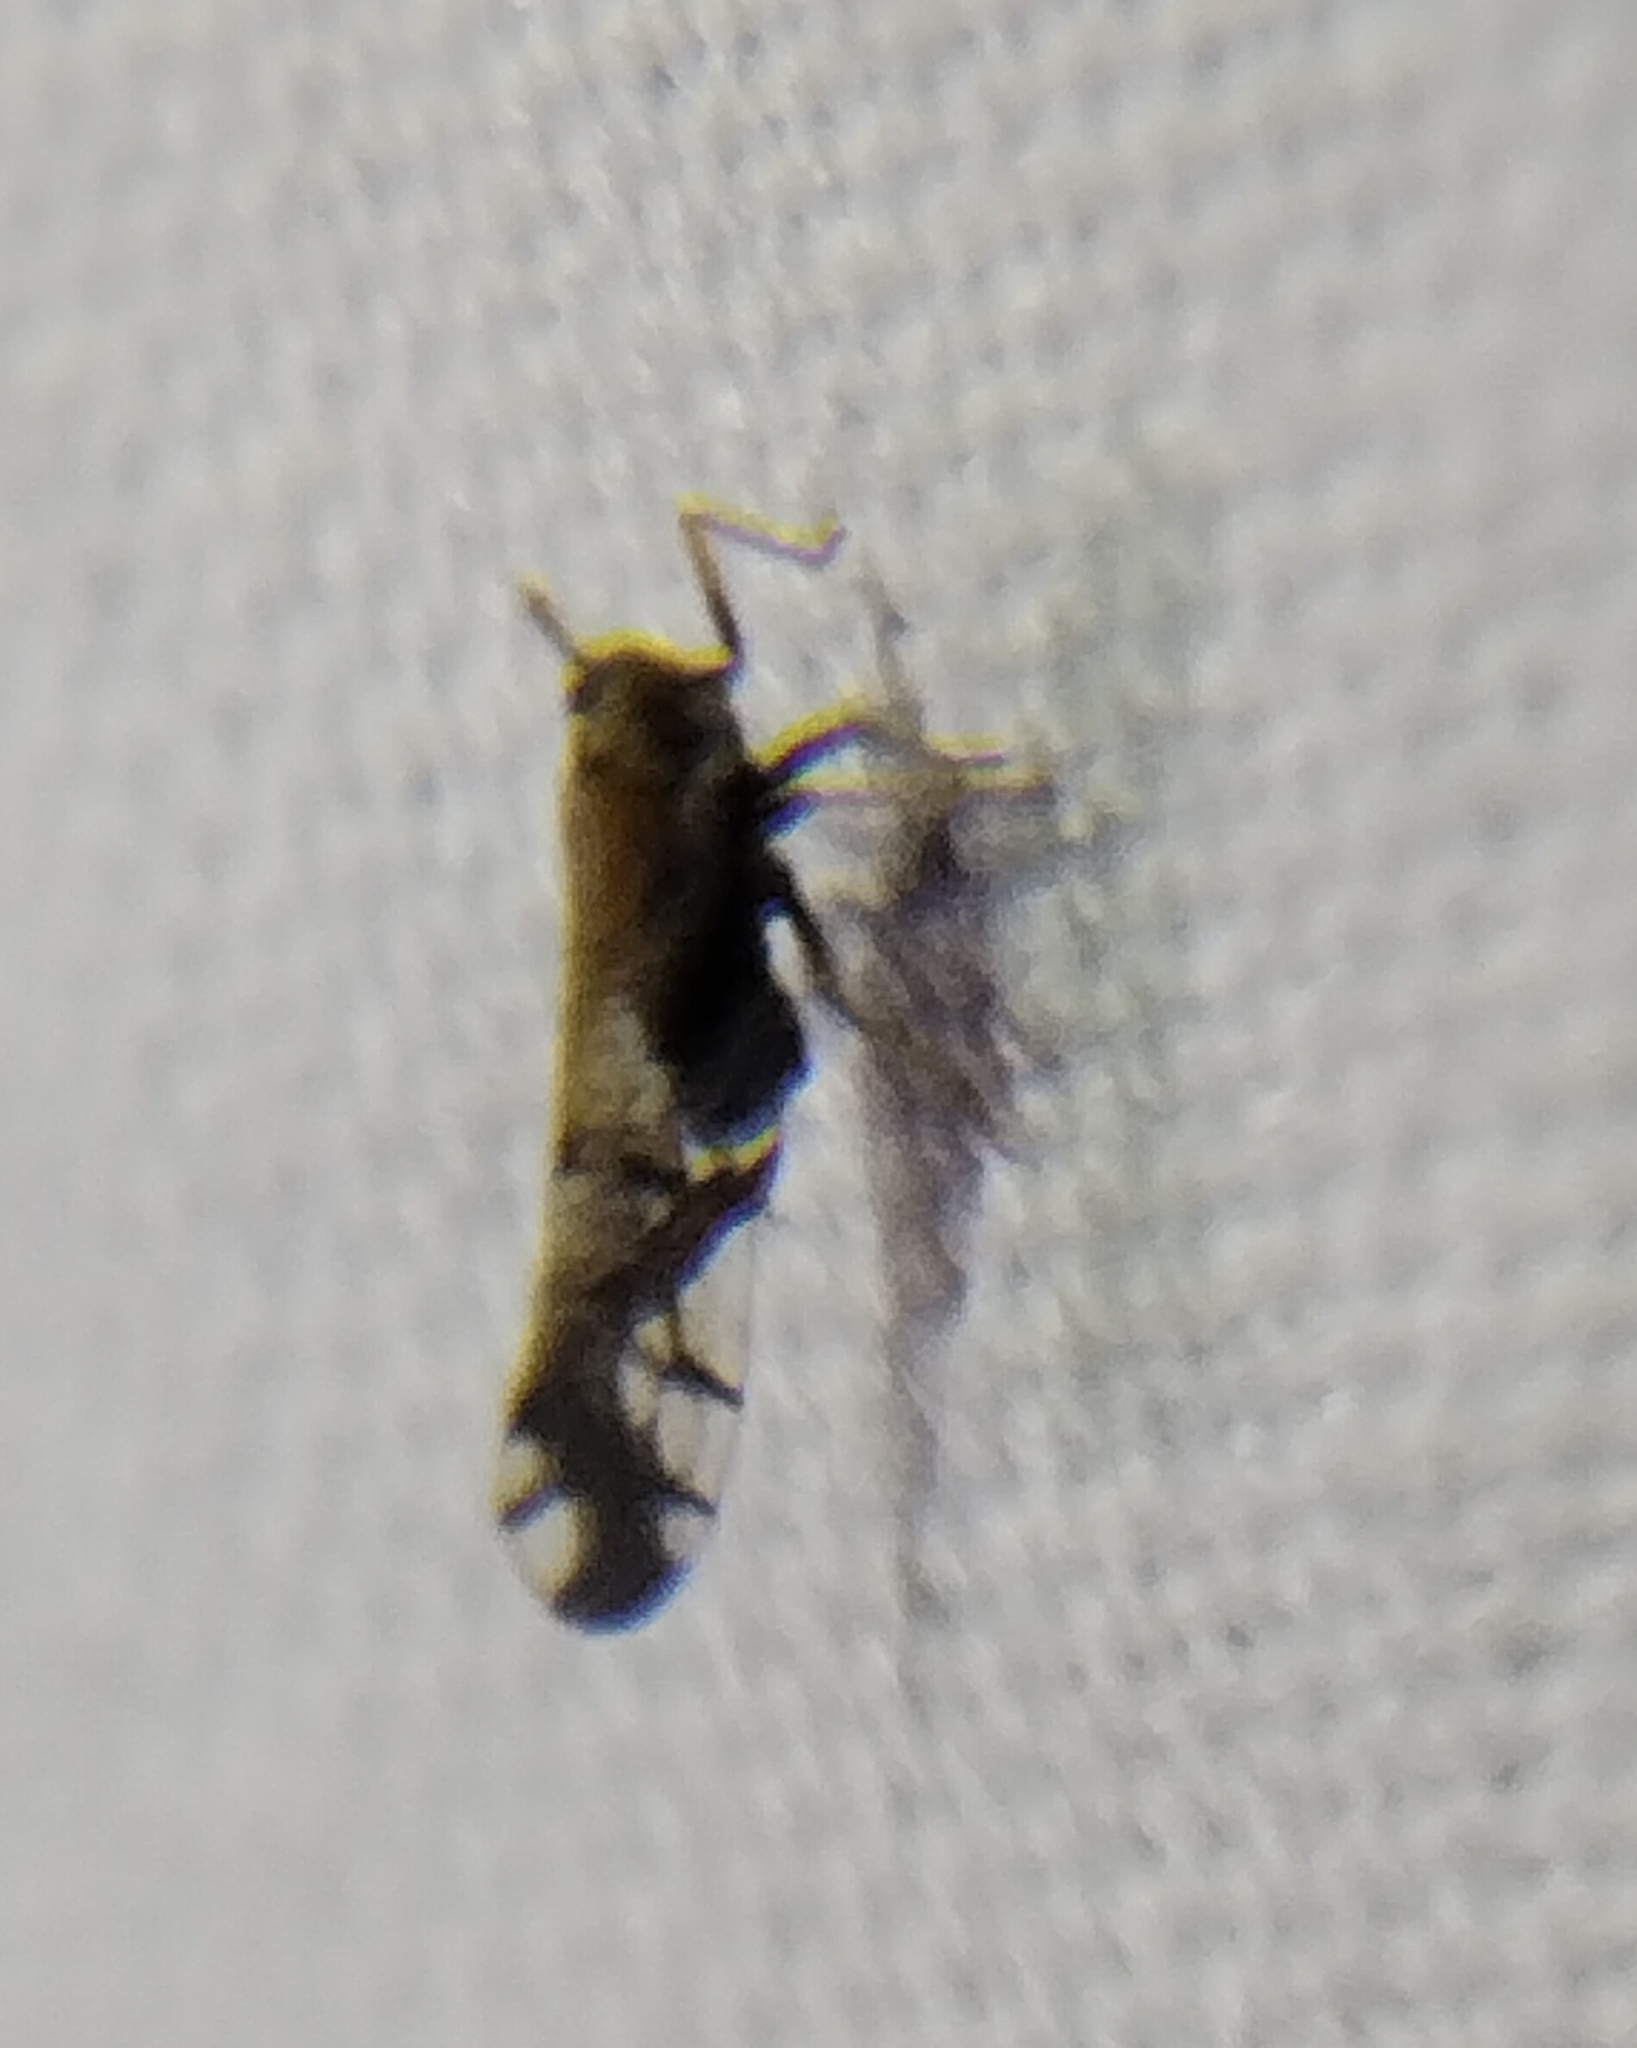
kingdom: Animalia
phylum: Arthropoda
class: Insecta
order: Hemiptera
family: Delphacidae
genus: Liburniella
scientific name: Liburniella ornata
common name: Ornate planthopper
